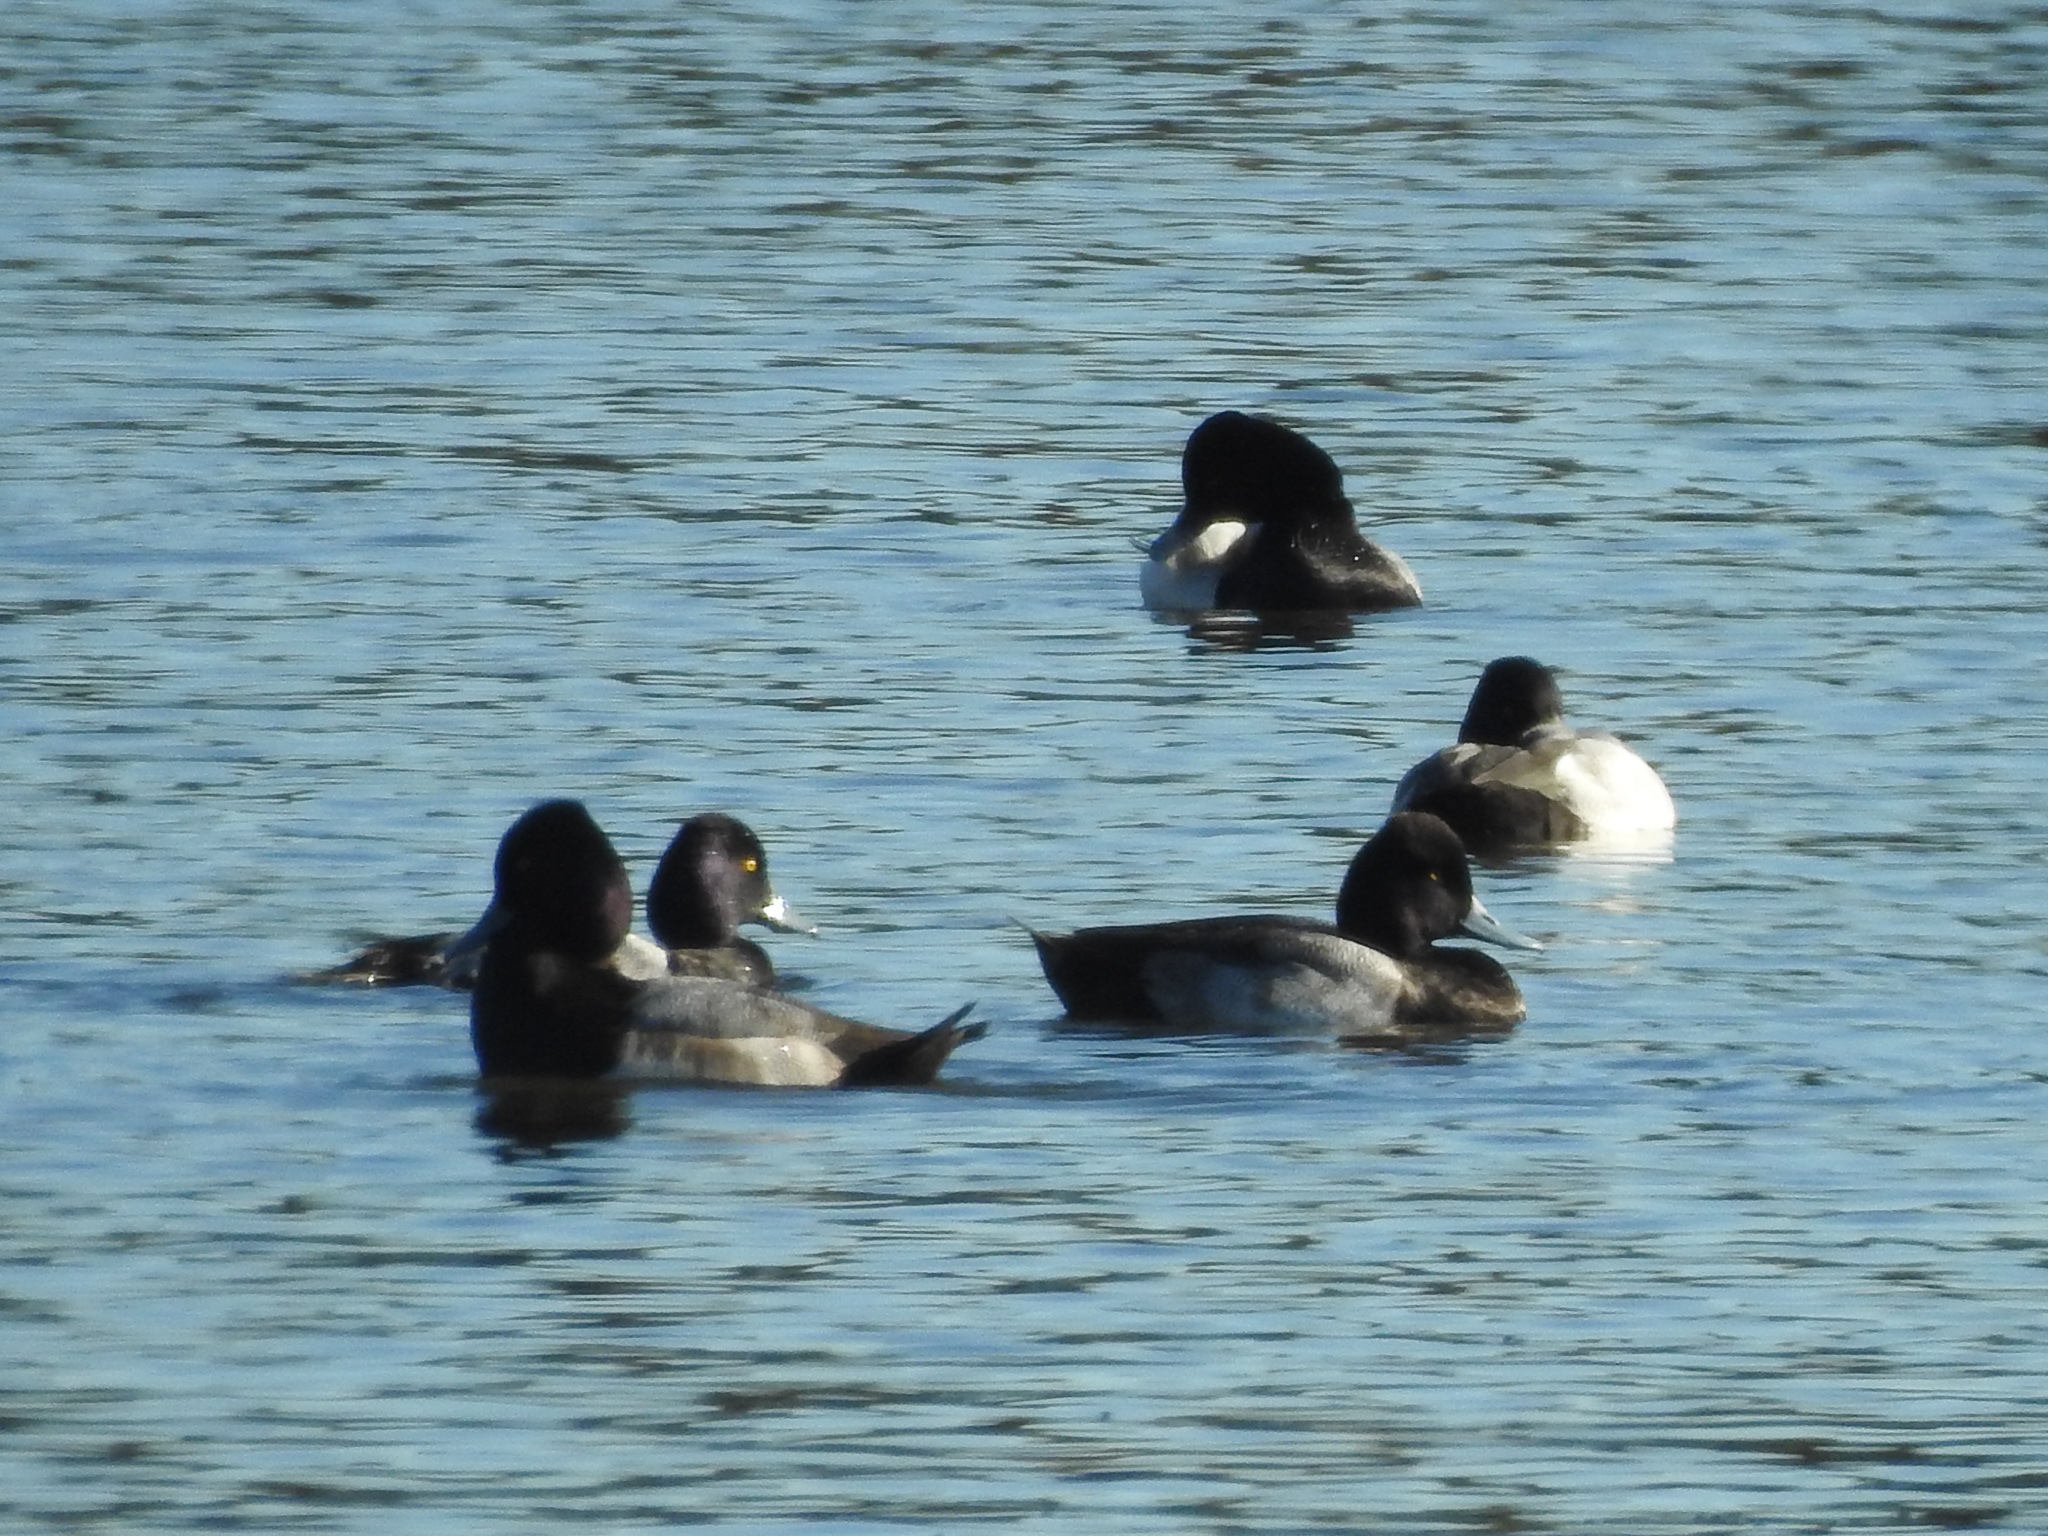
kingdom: Animalia
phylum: Chordata
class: Aves
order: Anseriformes
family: Anatidae
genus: Aythya
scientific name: Aythya affinis
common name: Lesser scaup
